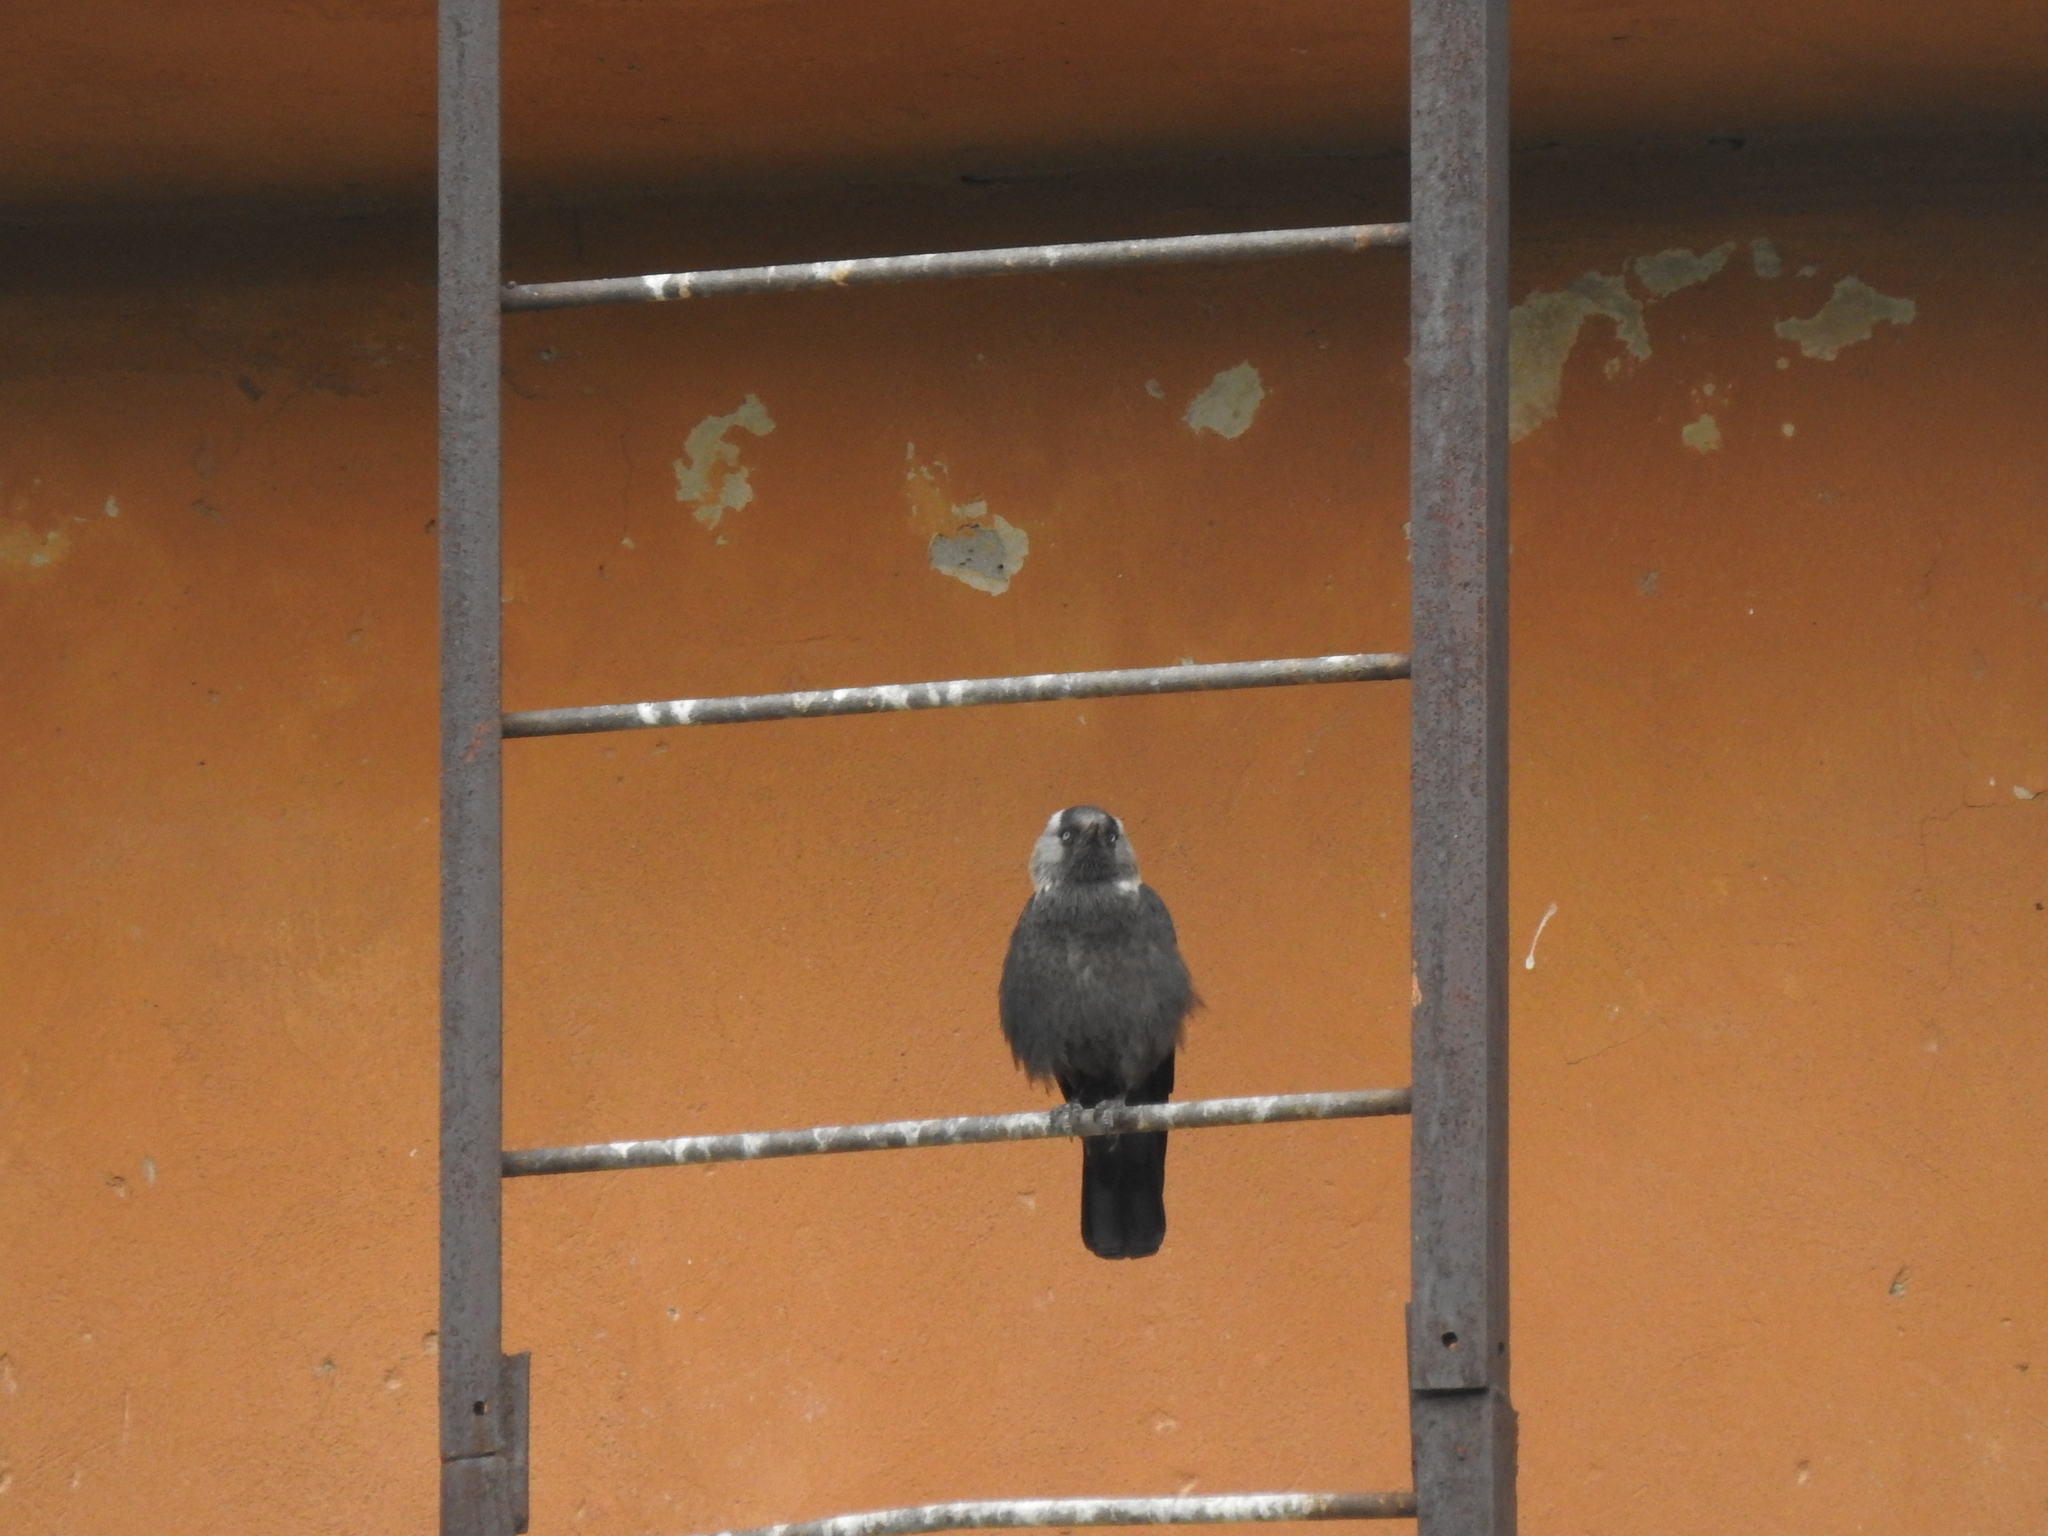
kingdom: Animalia
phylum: Chordata
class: Aves
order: Passeriformes
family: Corvidae
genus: Coloeus
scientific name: Coloeus monedula
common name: Western jackdaw
